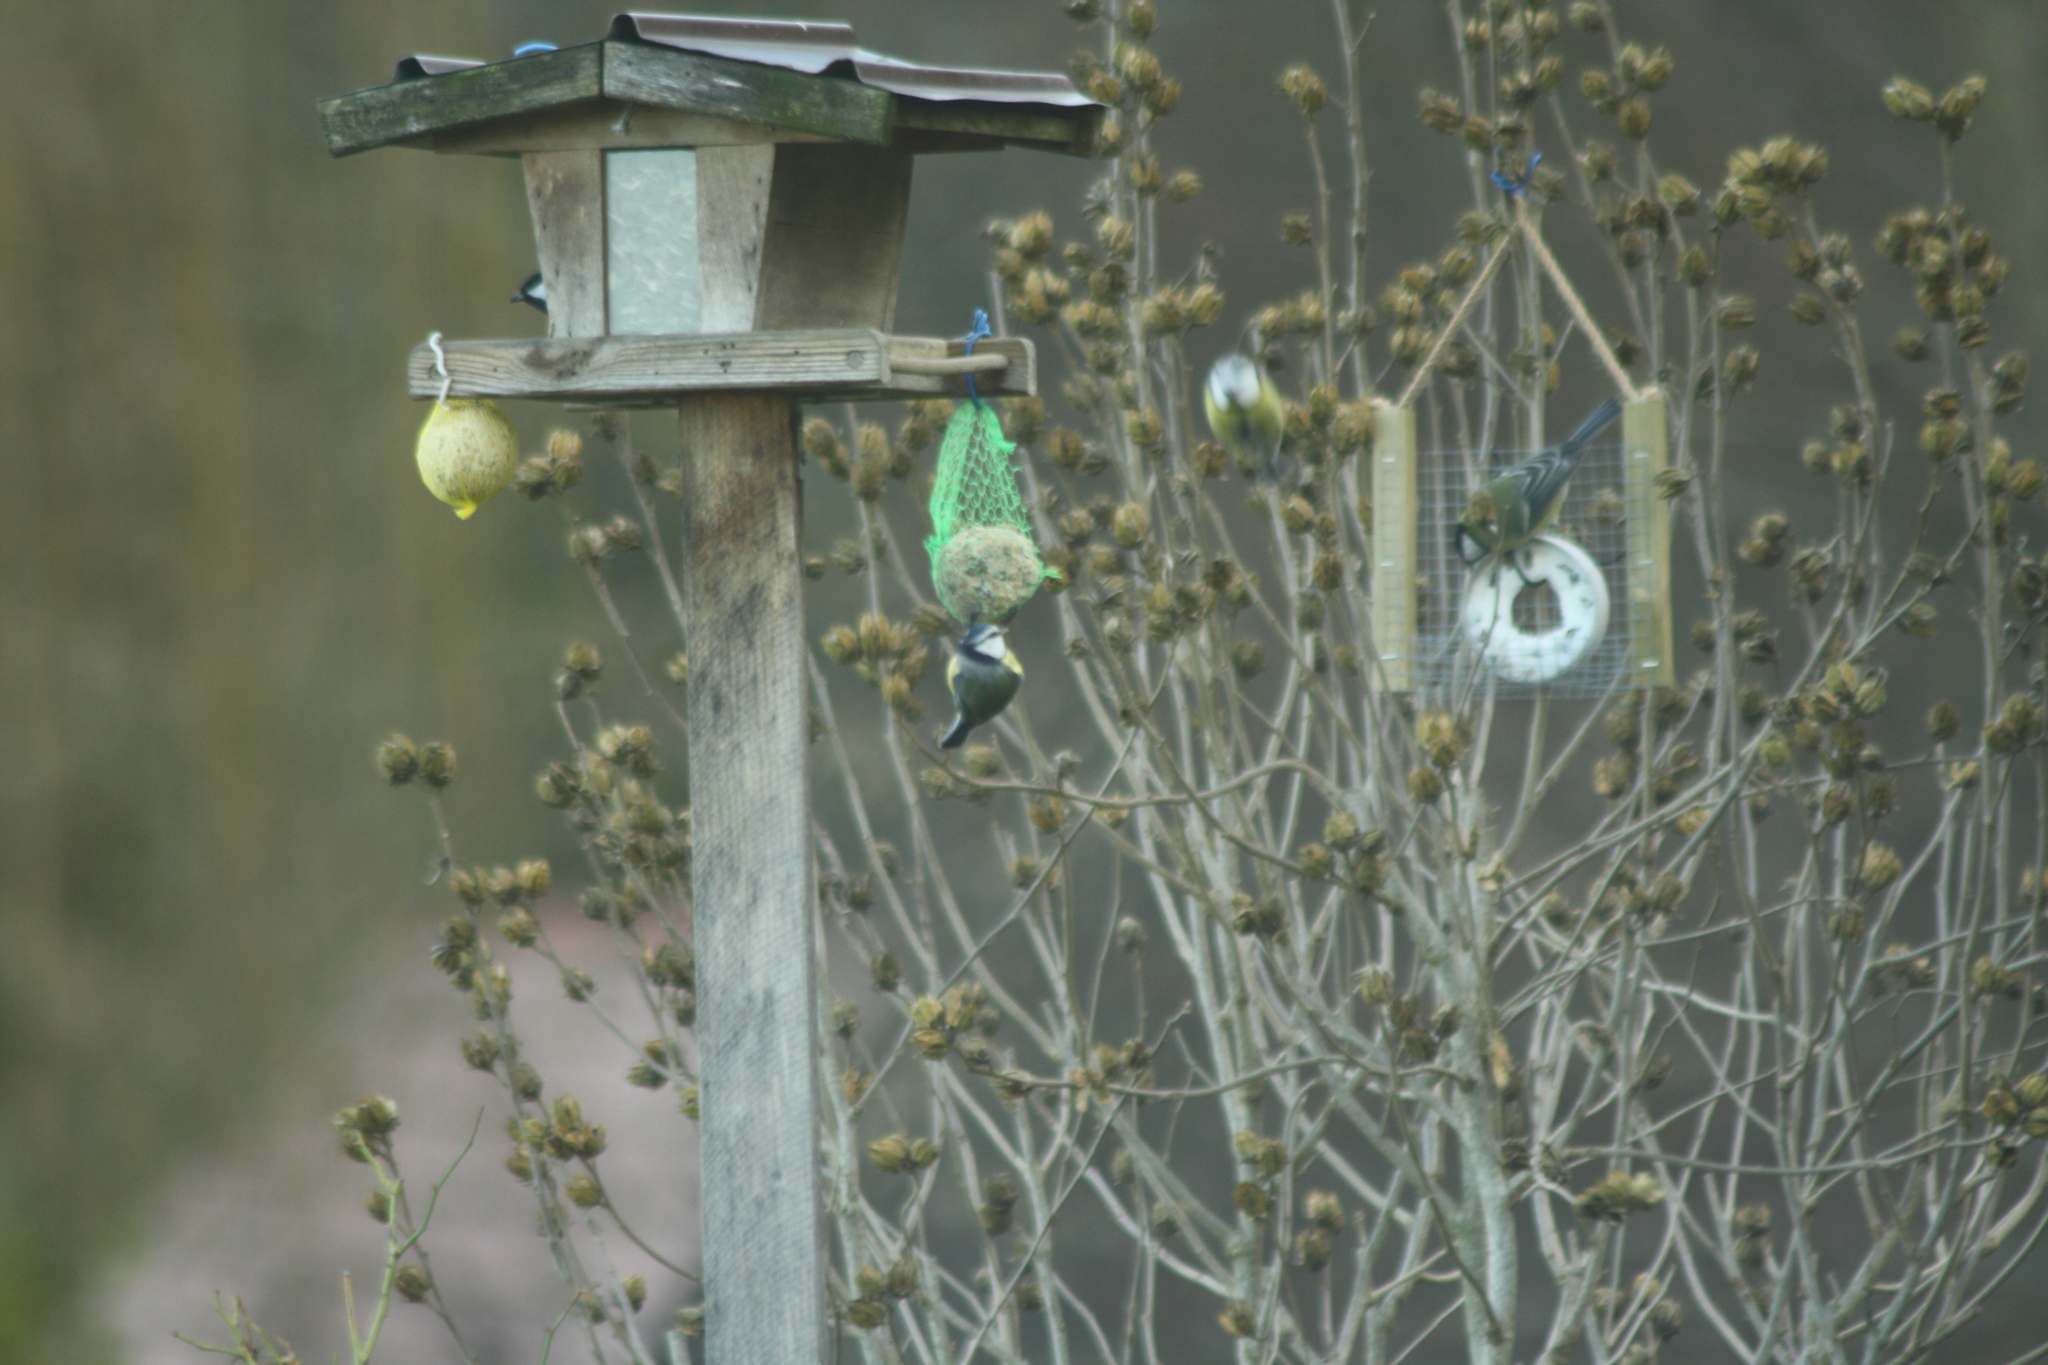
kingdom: Animalia
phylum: Chordata
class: Aves
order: Passeriformes
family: Paridae
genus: Cyanistes
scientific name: Cyanistes caeruleus
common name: Eurasian blue tit
